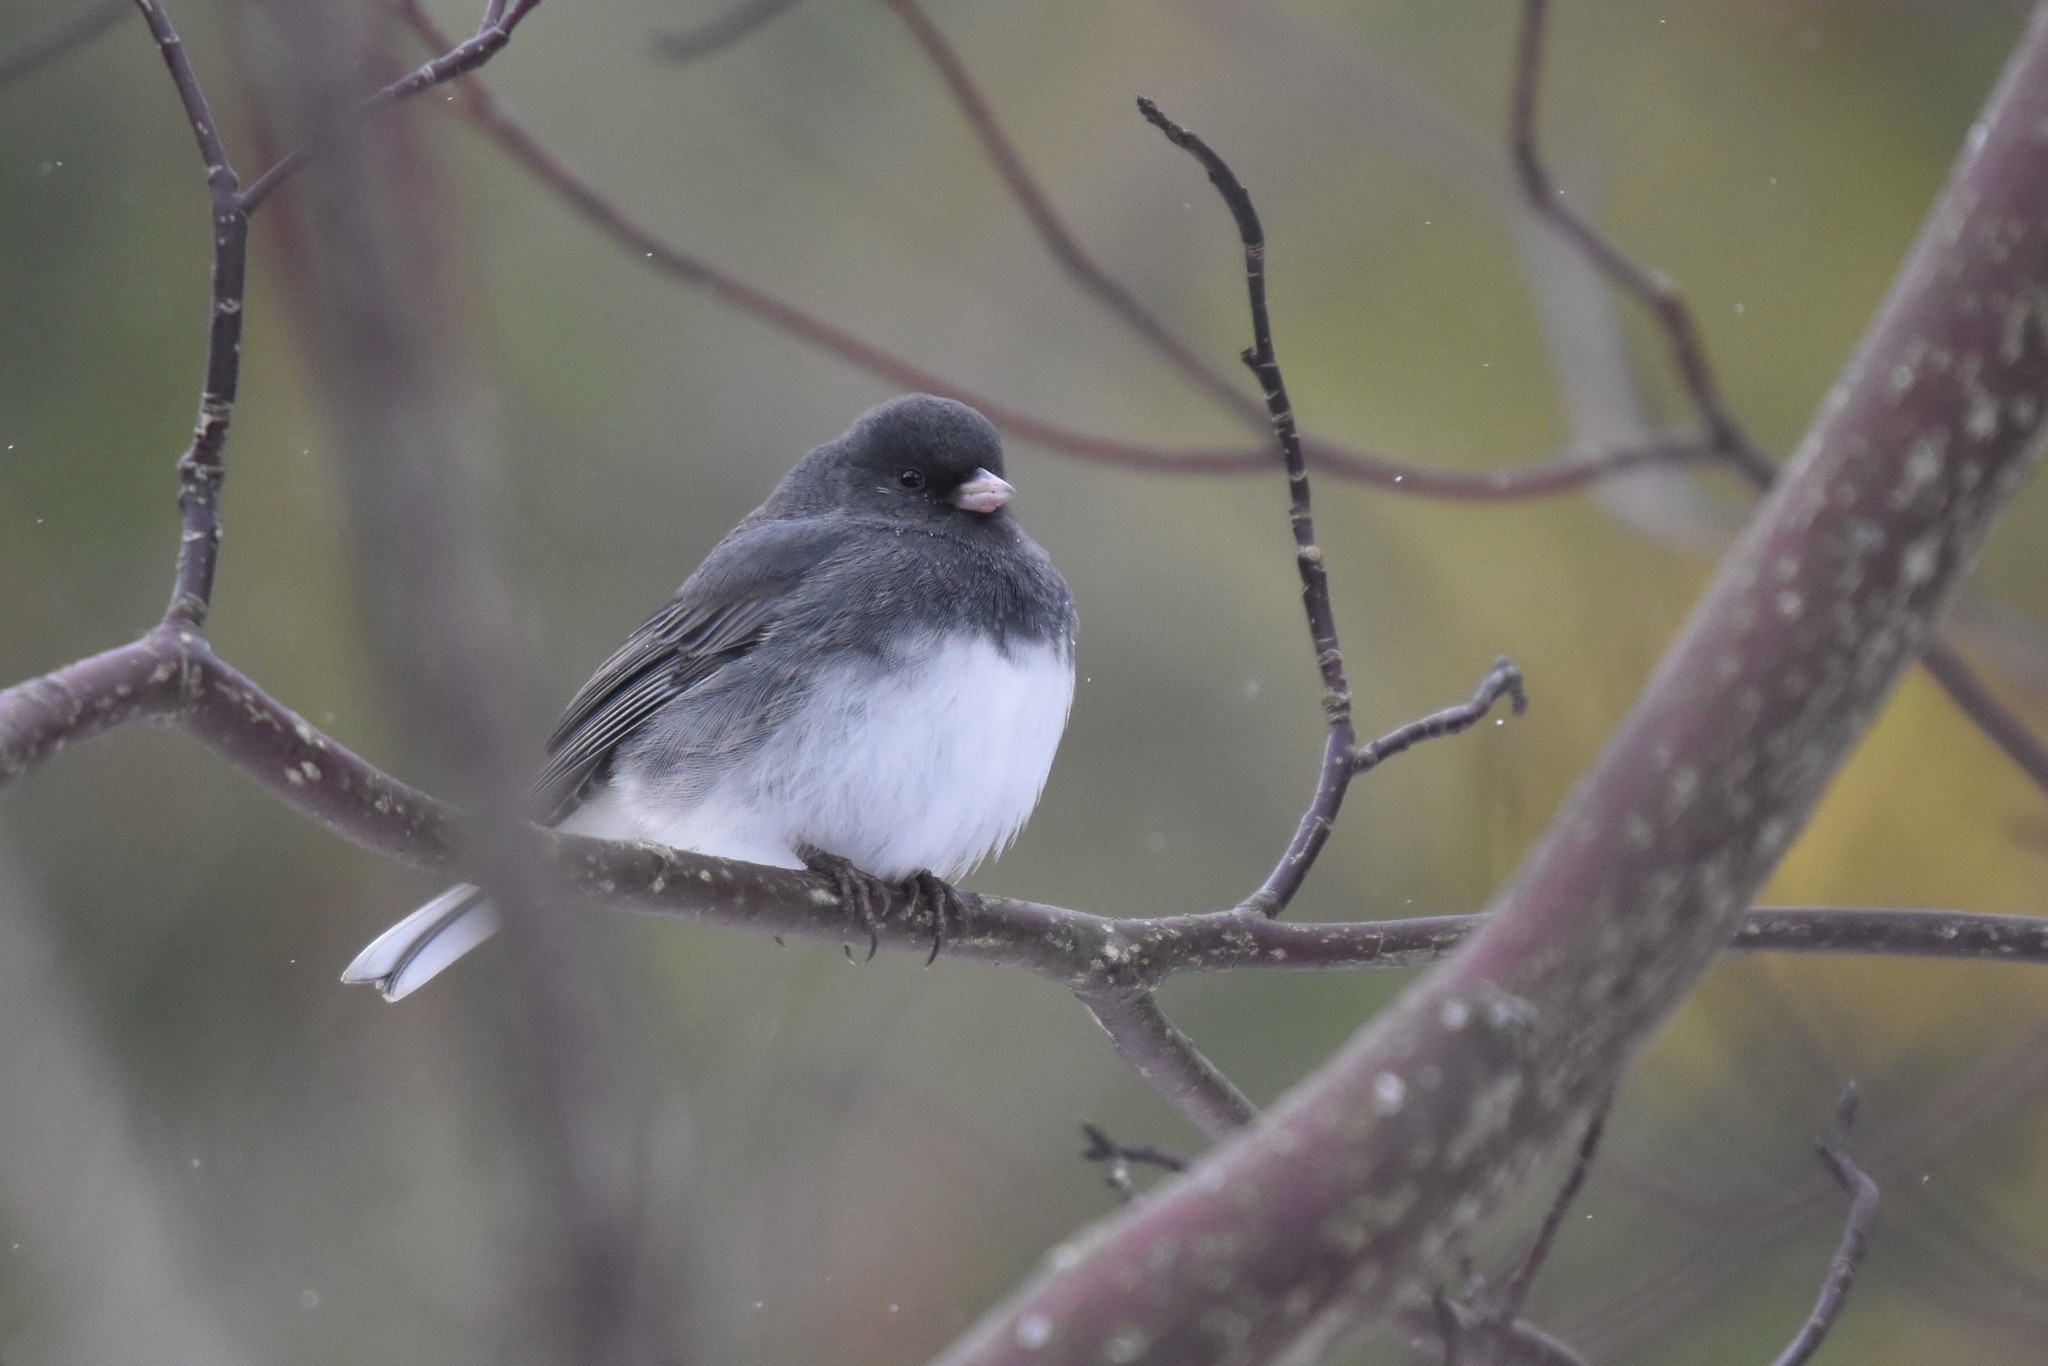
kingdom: Animalia
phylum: Chordata
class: Aves
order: Passeriformes
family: Passerellidae
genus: Junco
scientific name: Junco hyemalis
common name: Dark-eyed junco
